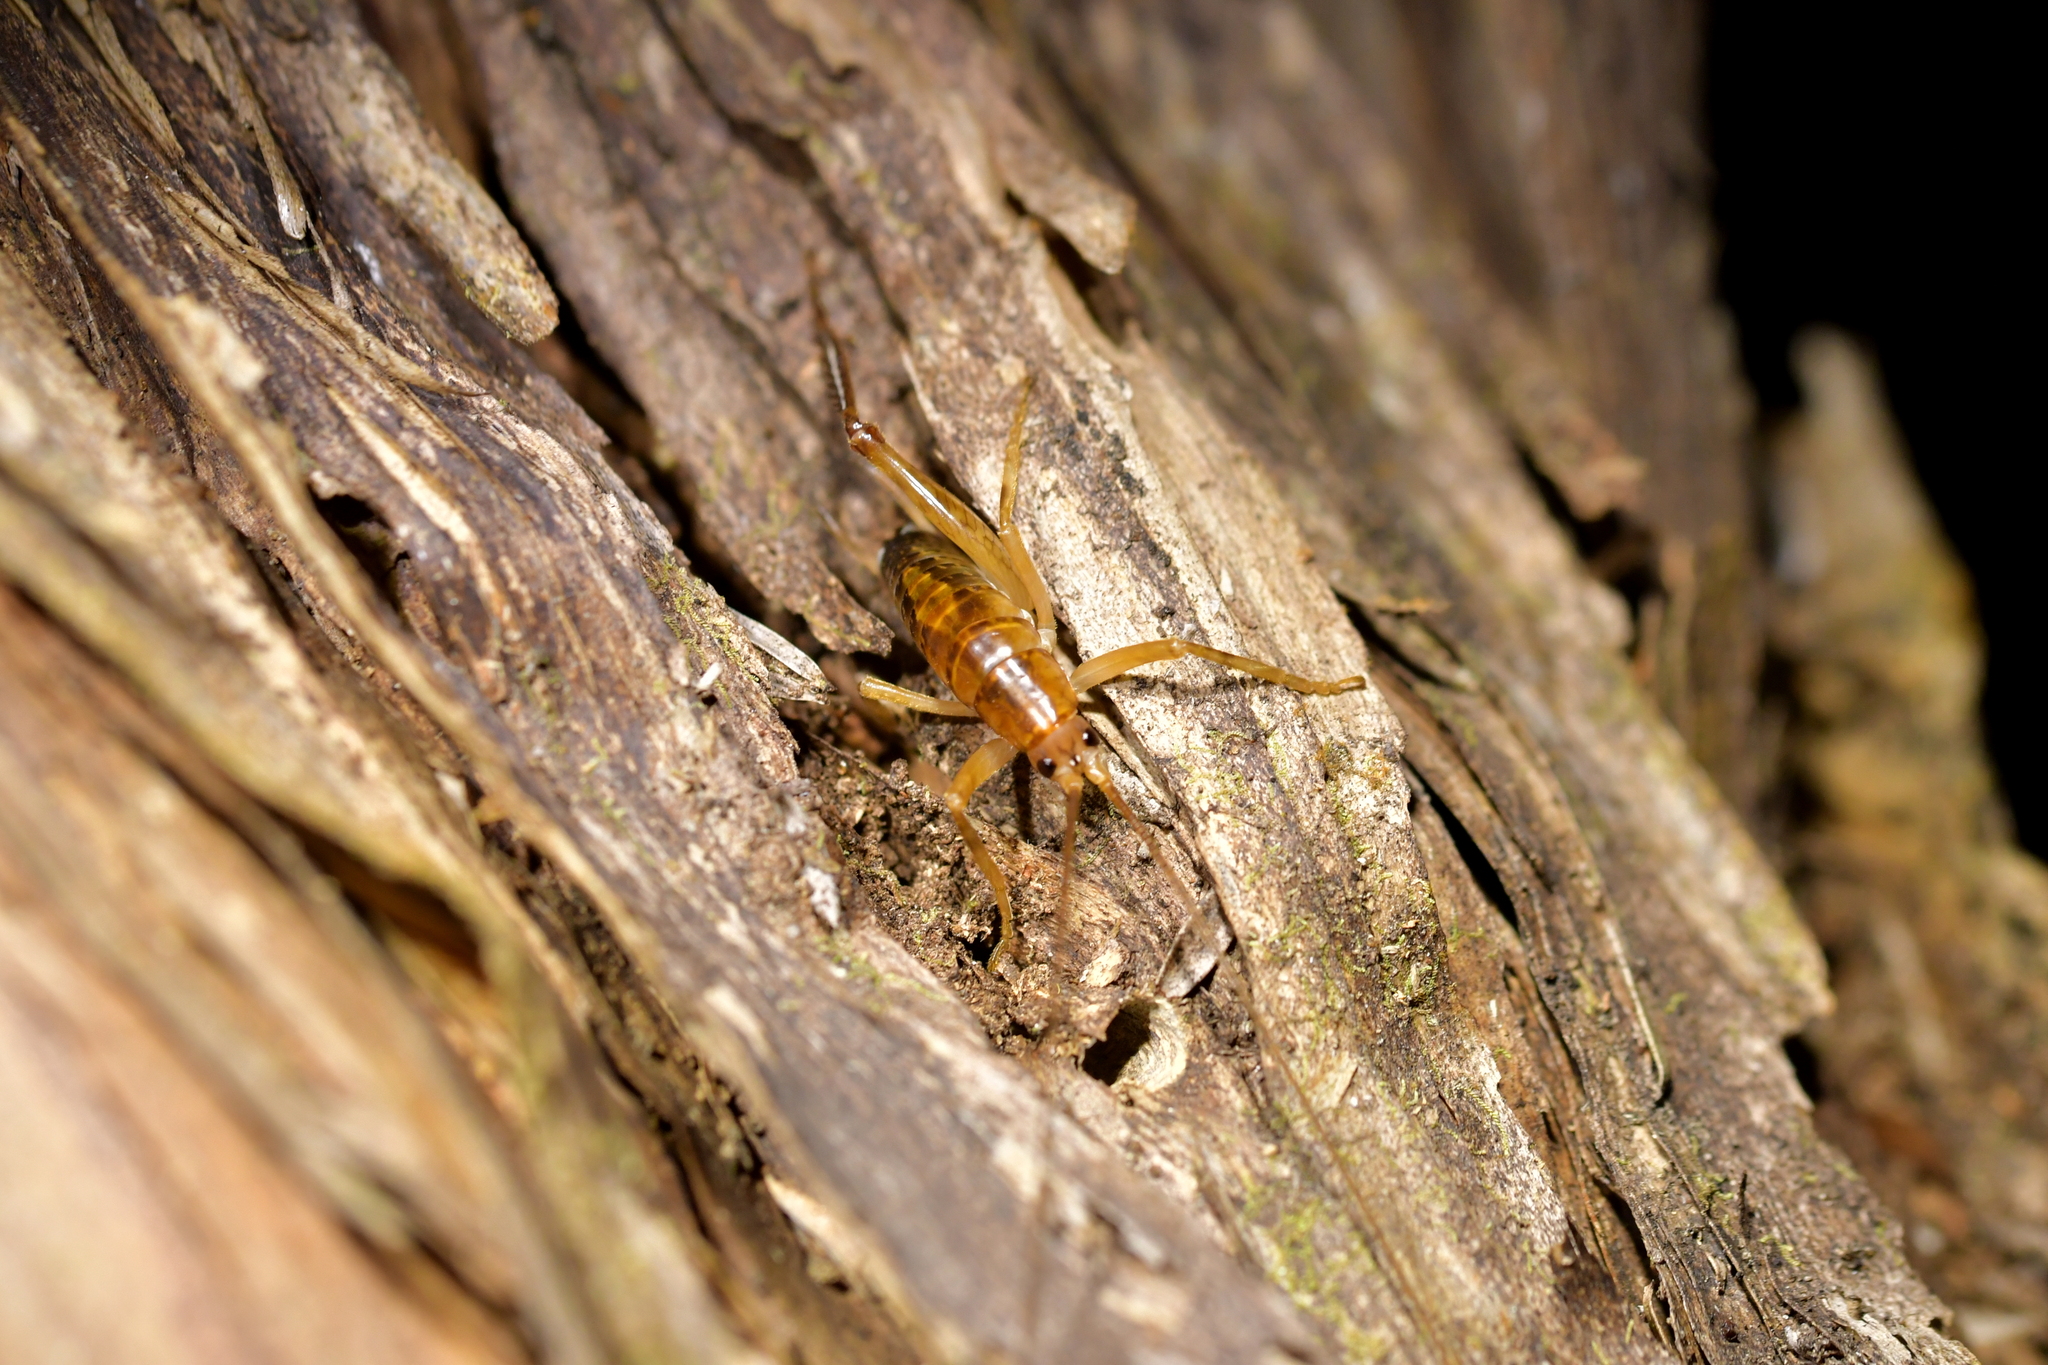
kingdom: Animalia
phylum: Arthropoda
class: Insecta
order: Orthoptera
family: Rhaphidophoridae
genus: Talitropsis
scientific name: Talitropsis sedilloti
